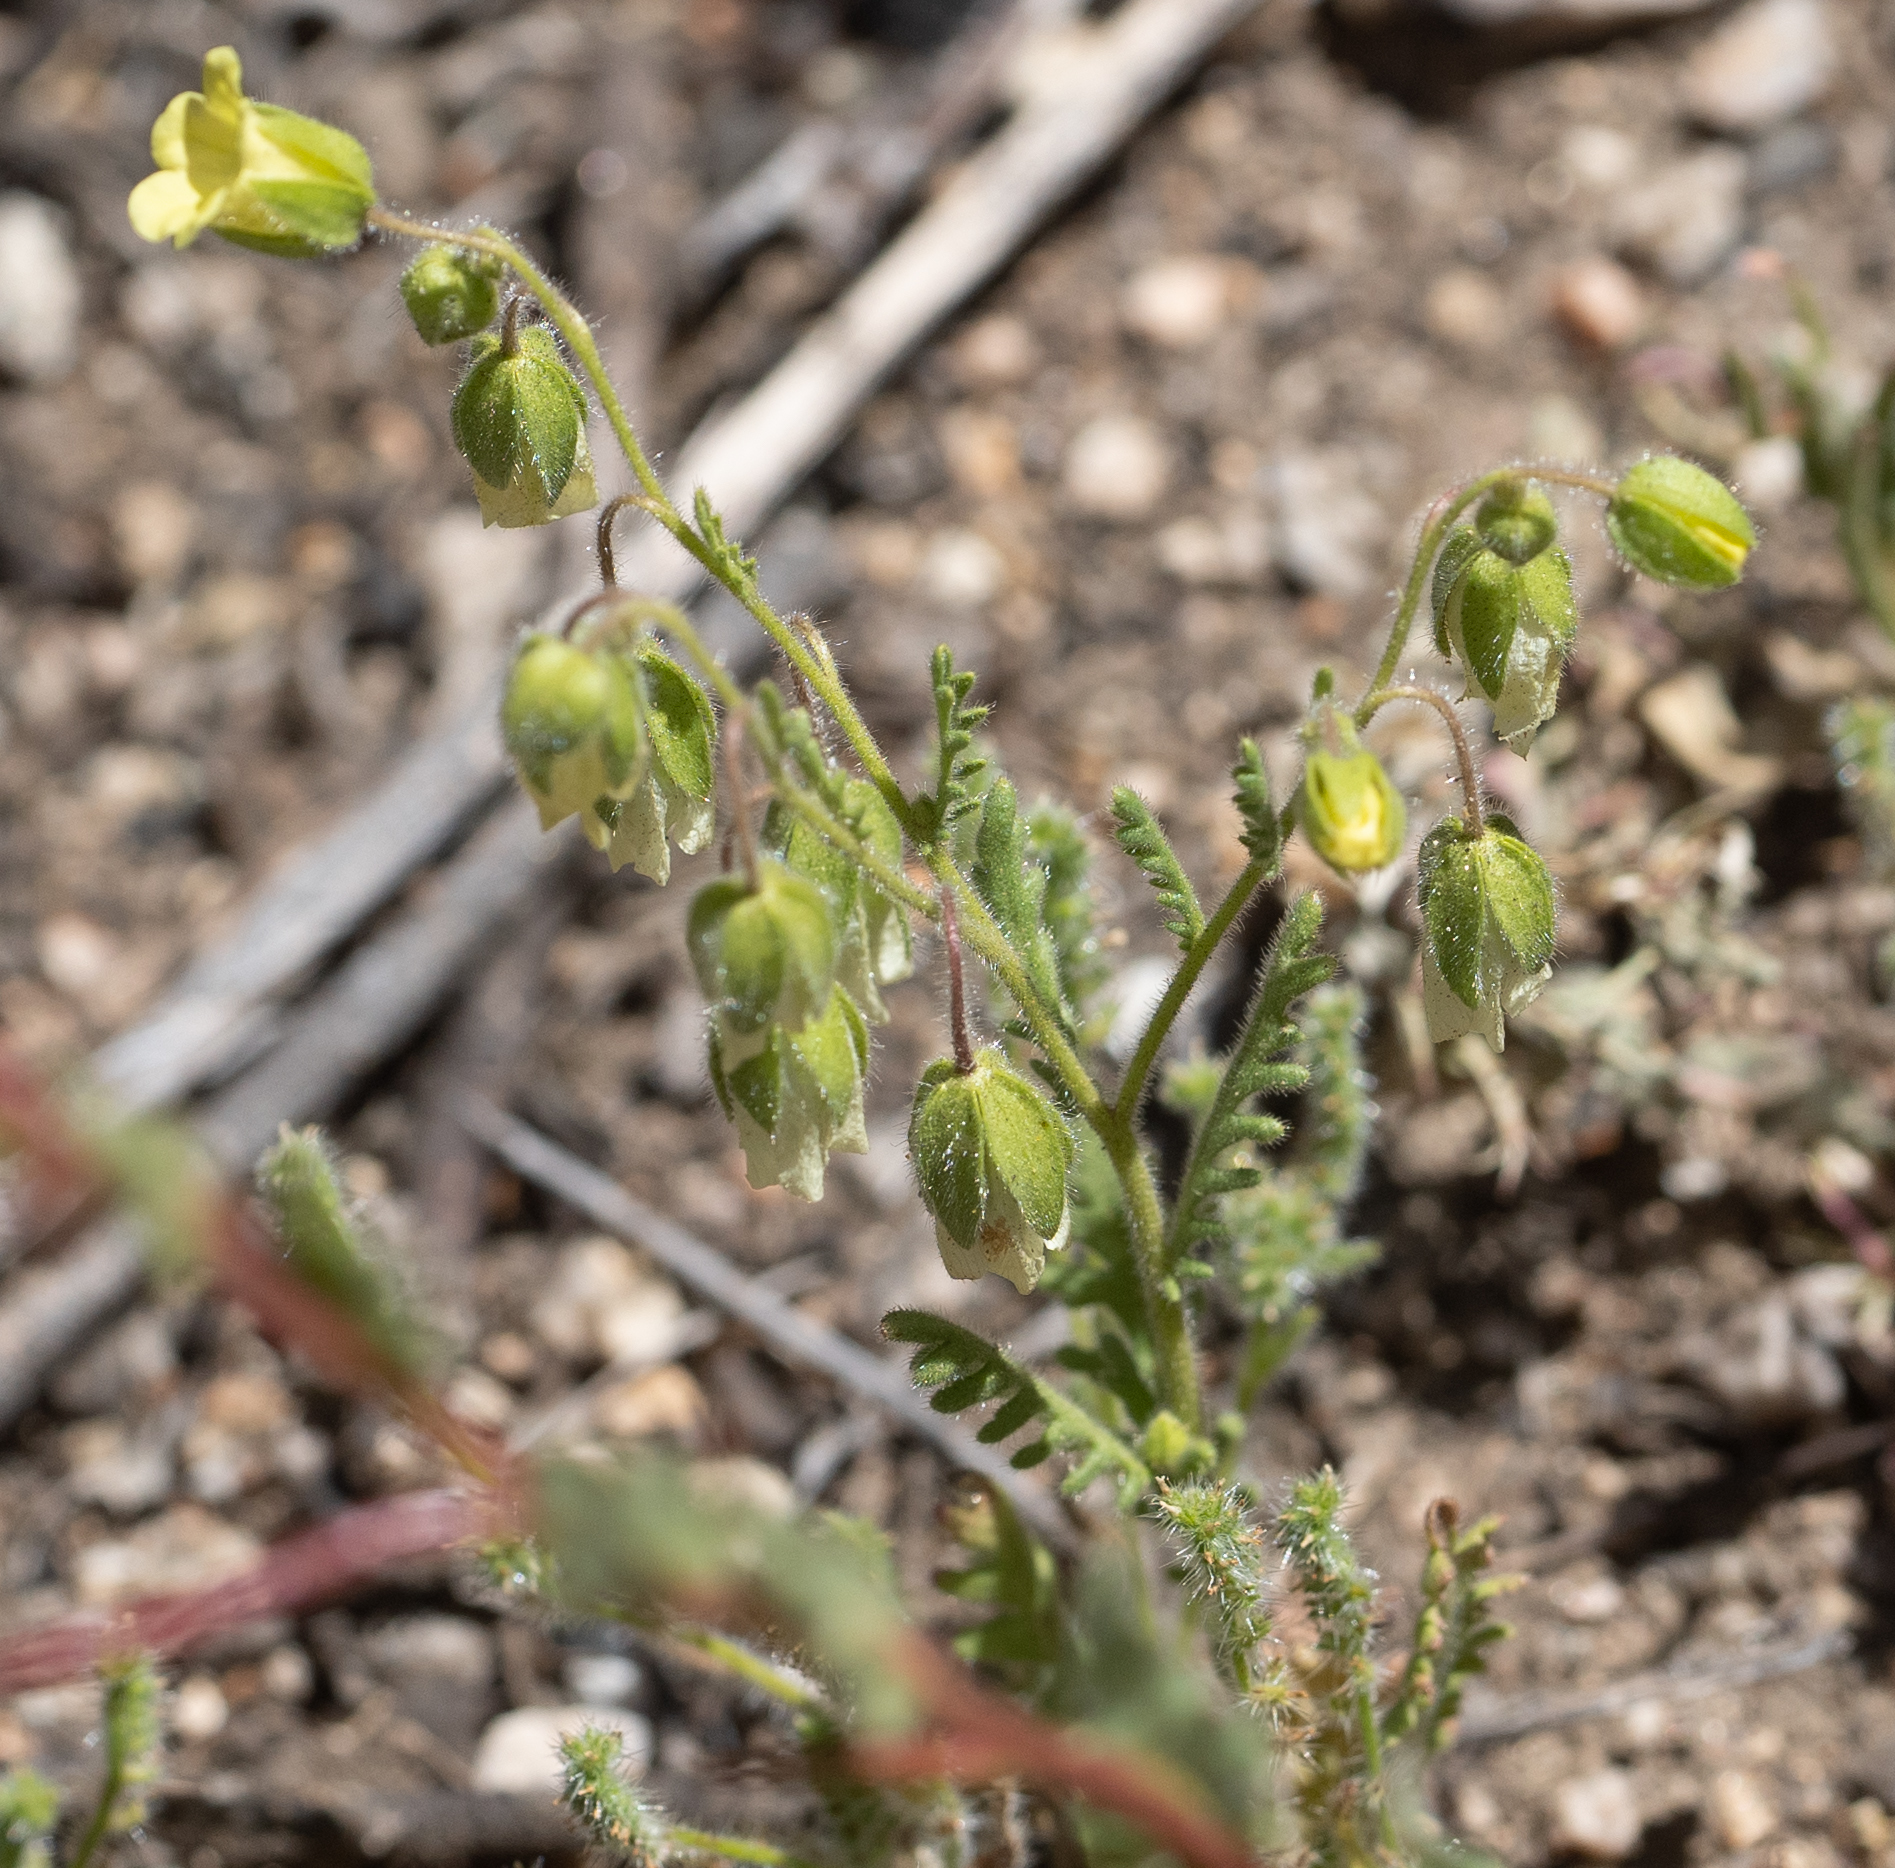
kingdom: Plantae
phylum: Tracheophyta
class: Magnoliopsida
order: Boraginales
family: Hydrophyllaceae
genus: Emmenanthe
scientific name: Emmenanthe penduliflora
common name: Whispering-bells
